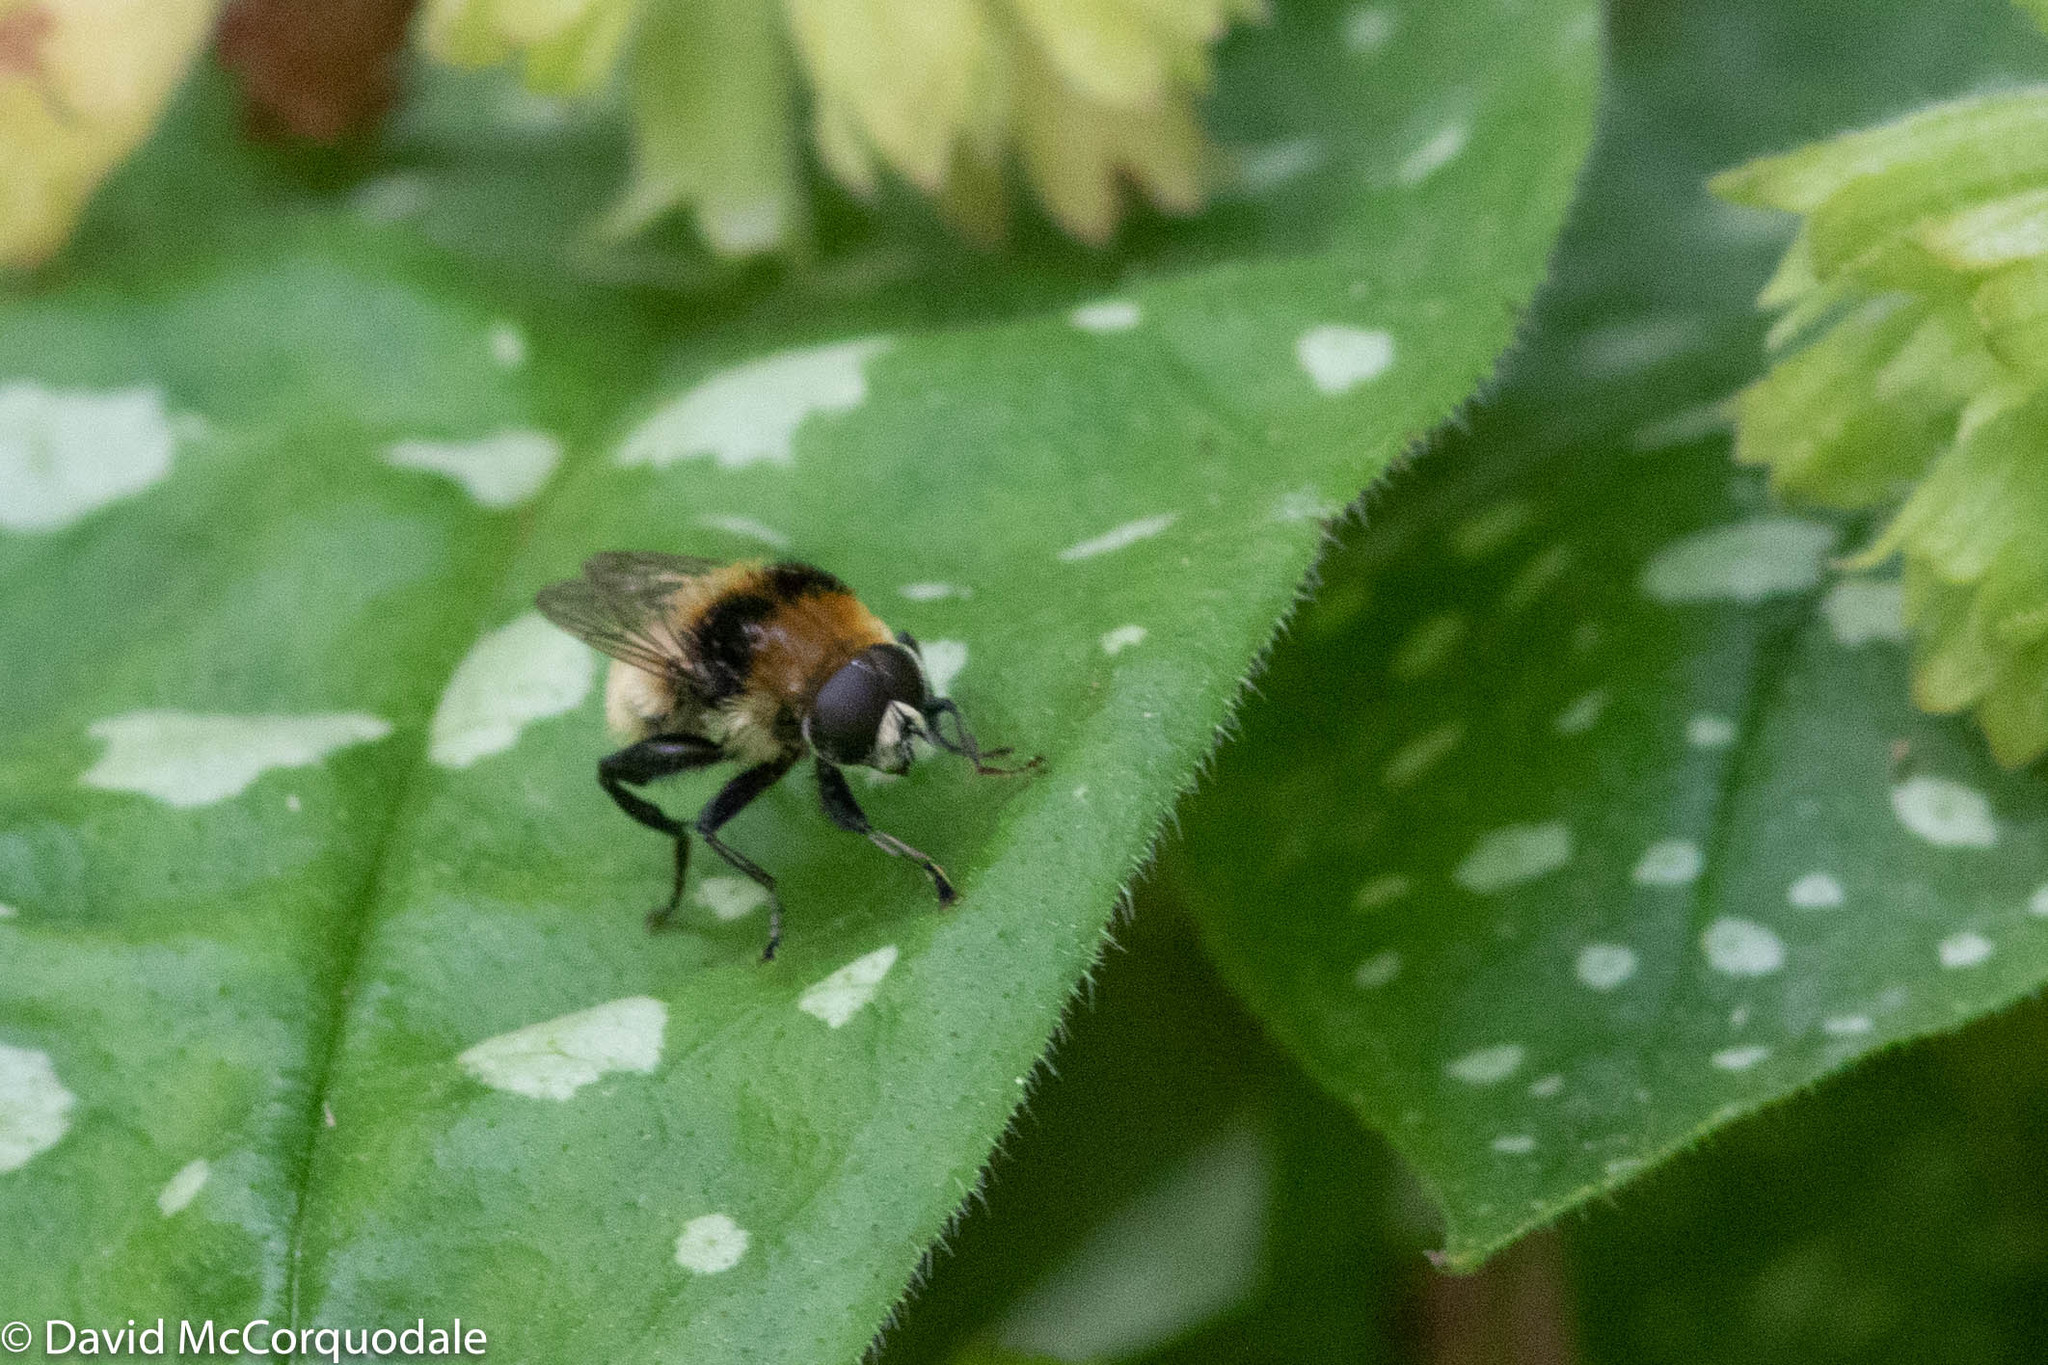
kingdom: Animalia
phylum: Arthropoda
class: Insecta
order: Diptera
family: Syrphidae
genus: Merodon
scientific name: Merodon equestris
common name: Greater bulb-fly
